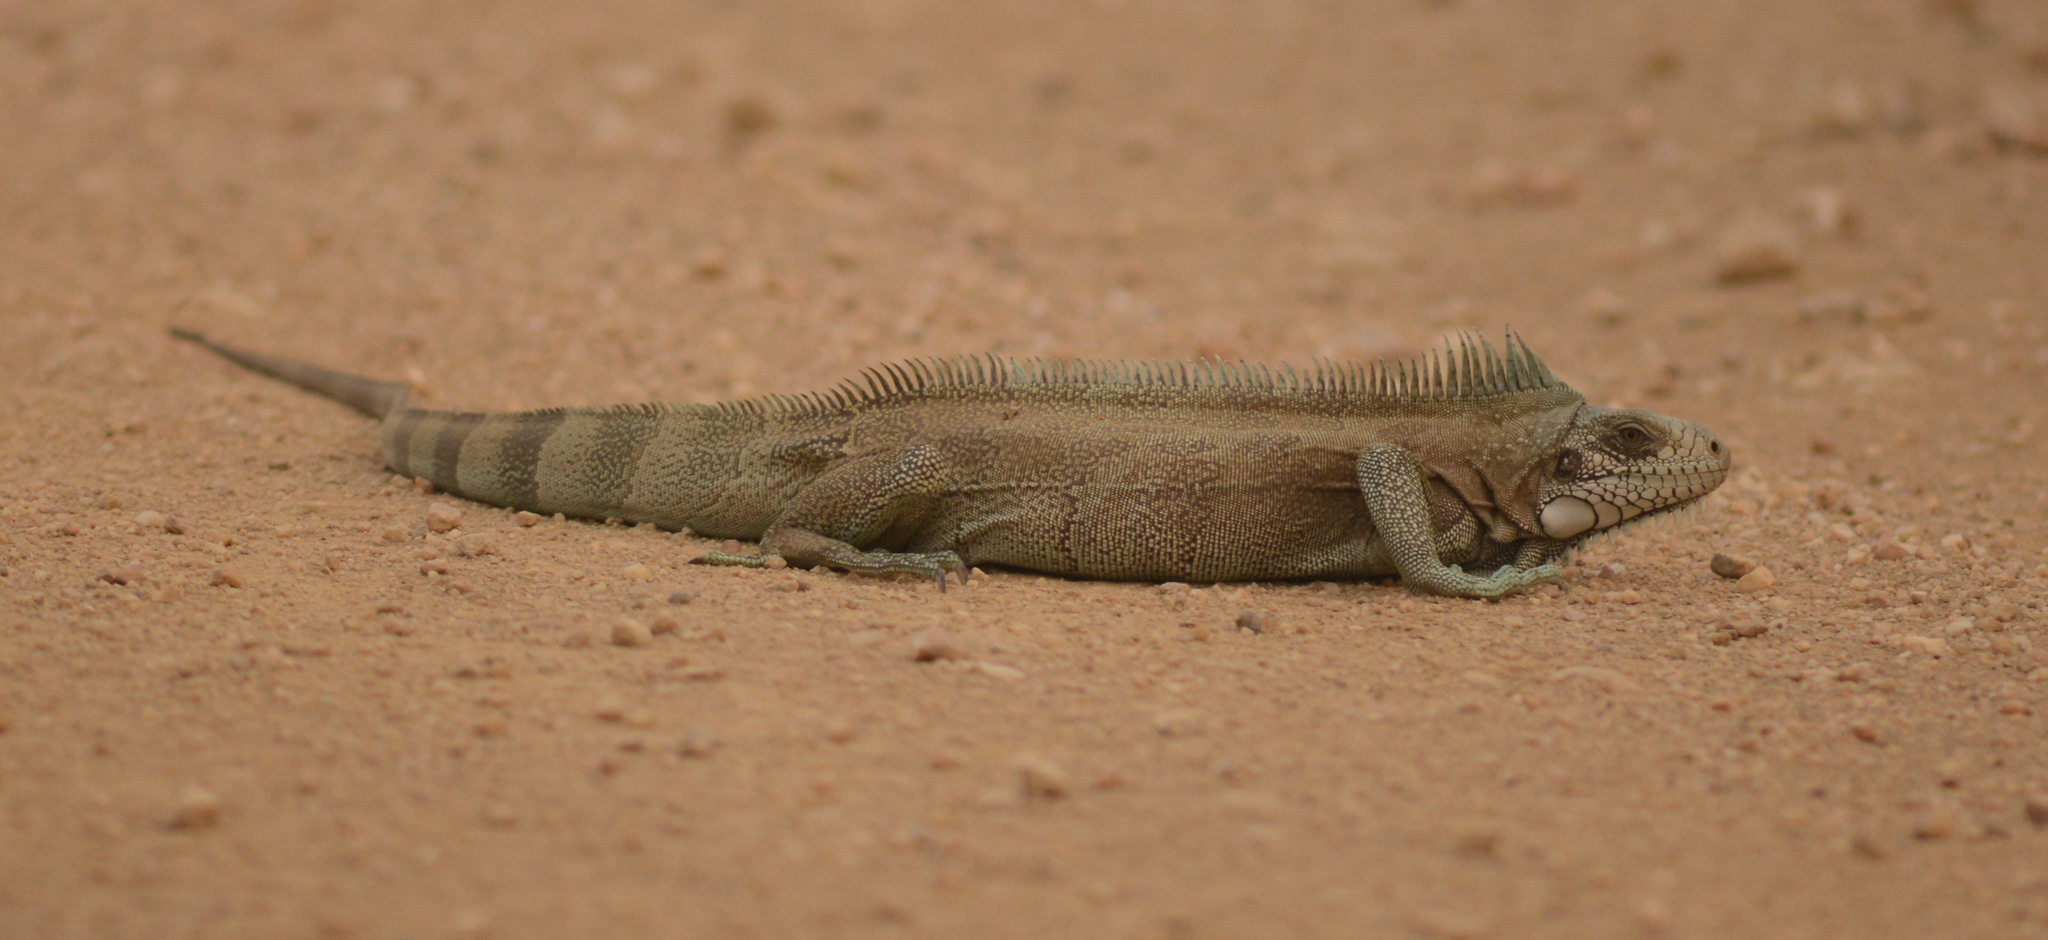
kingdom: Animalia
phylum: Chordata
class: Squamata
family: Iguanidae
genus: Iguana
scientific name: Iguana iguana
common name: Green iguana
